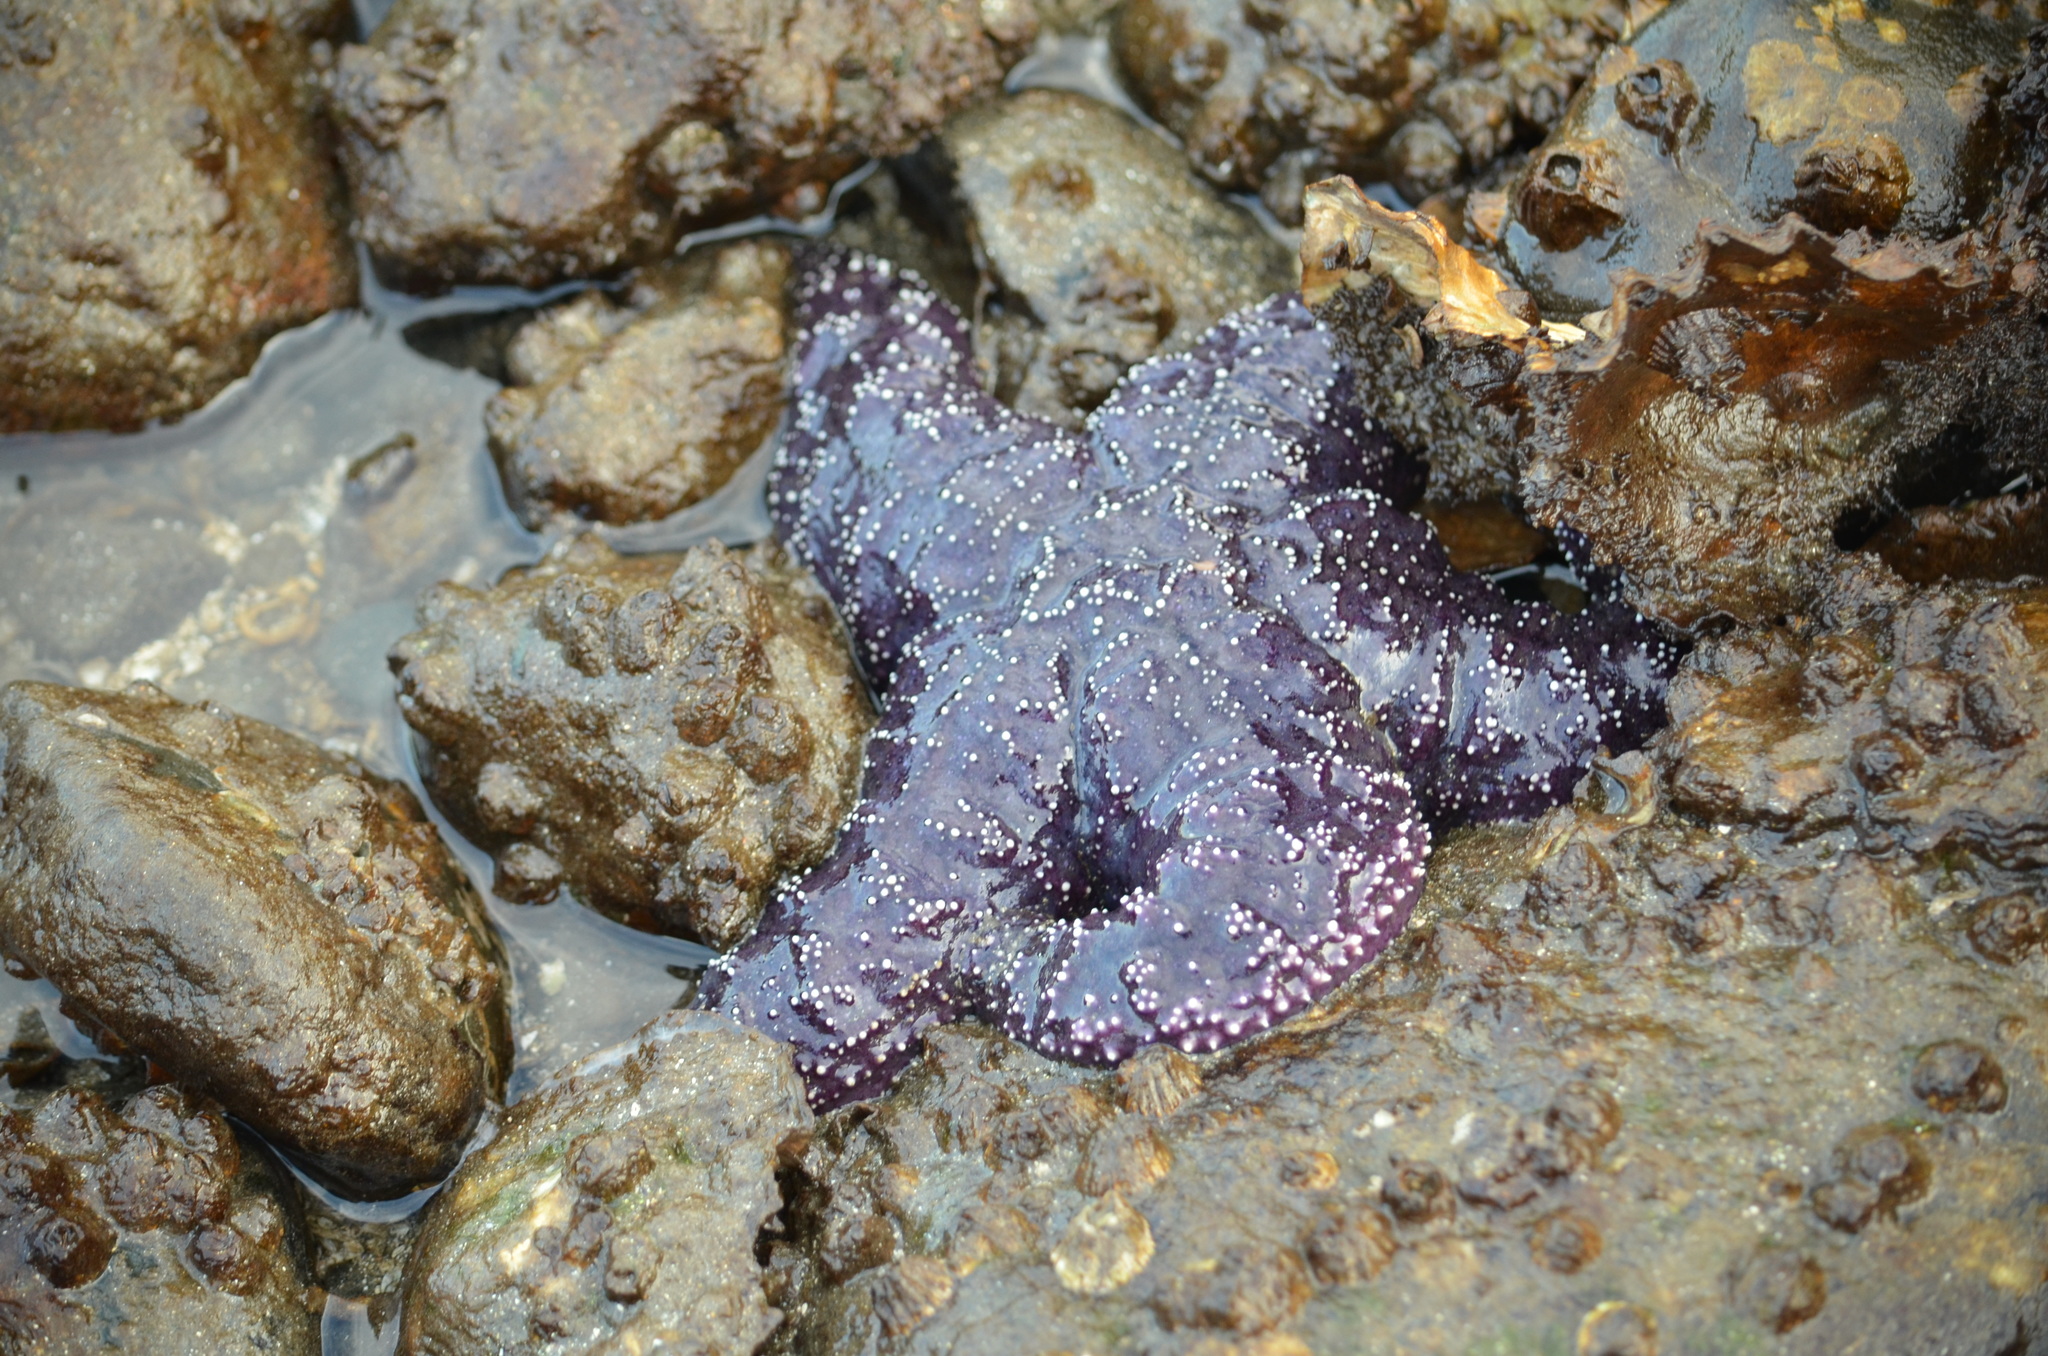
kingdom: Animalia
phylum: Echinodermata
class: Asteroidea
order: Forcipulatida
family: Asteriidae
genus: Pisaster
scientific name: Pisaster ochraceus
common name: Ochre stars
